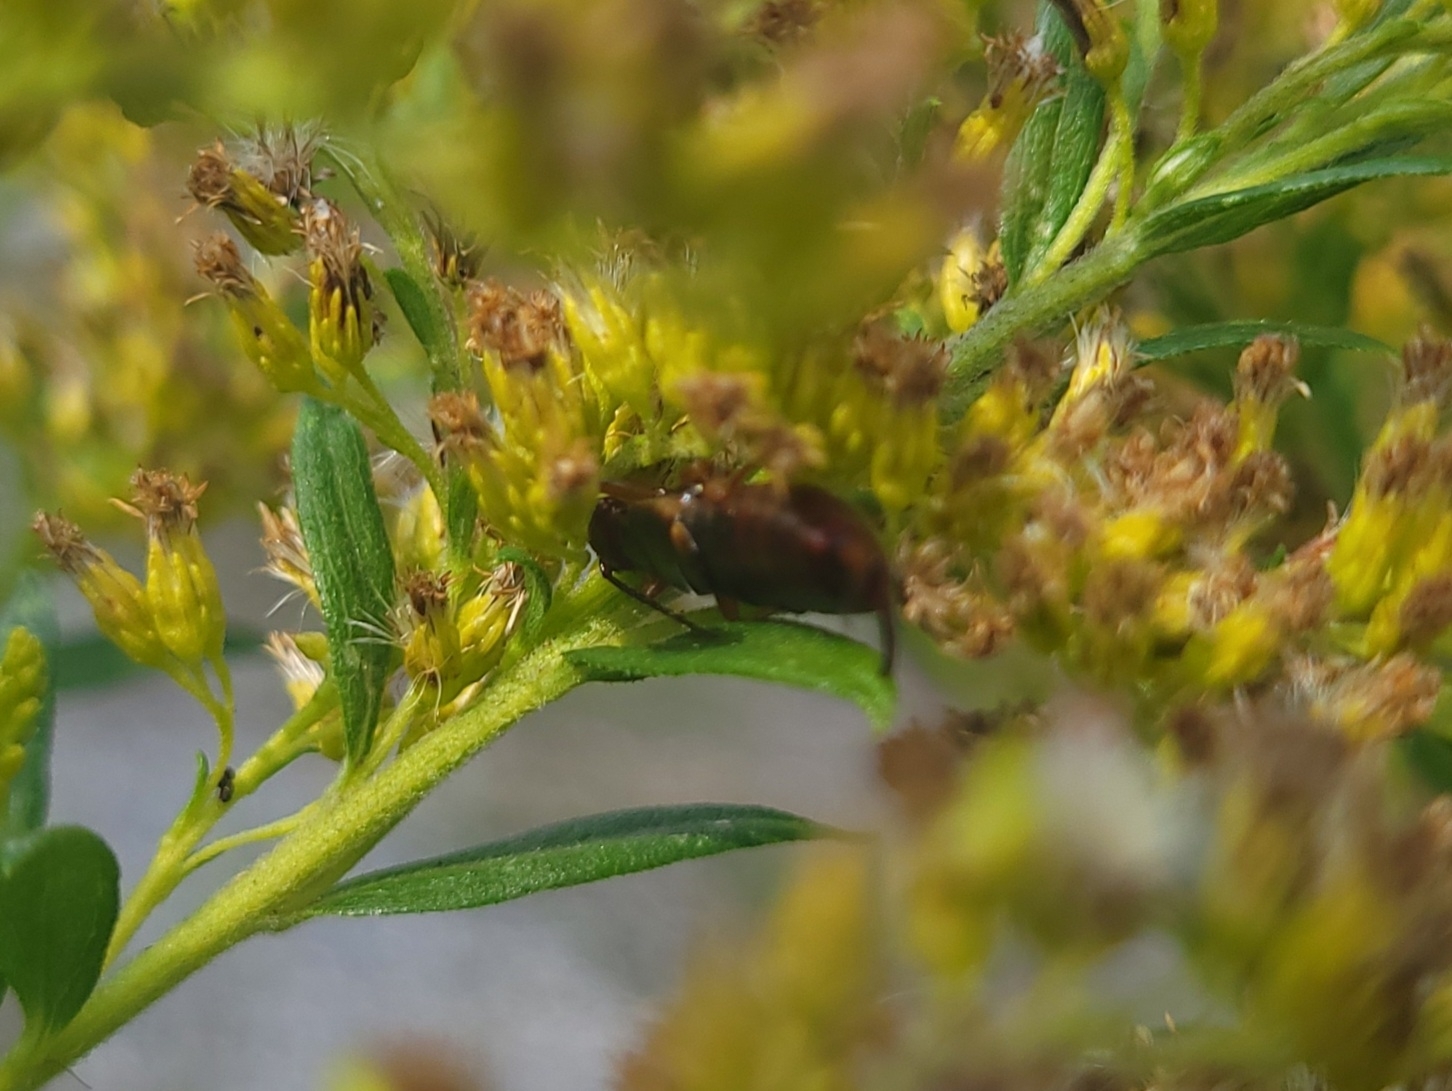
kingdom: Animalia
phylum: Arthropoda
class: Insecta
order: Dermaptera
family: Forficulidae
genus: Forficula
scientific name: Forficula
